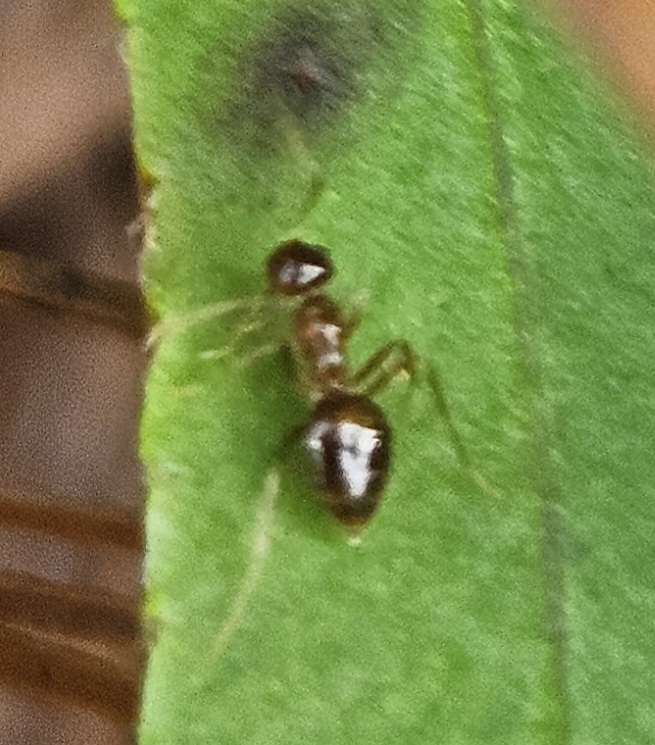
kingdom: Animalia
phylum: Arthropoda
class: Insecta
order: Hymenoptera
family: Formicidae
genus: Prenolepis
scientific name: Prenolepis imparis
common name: Small honey ant
